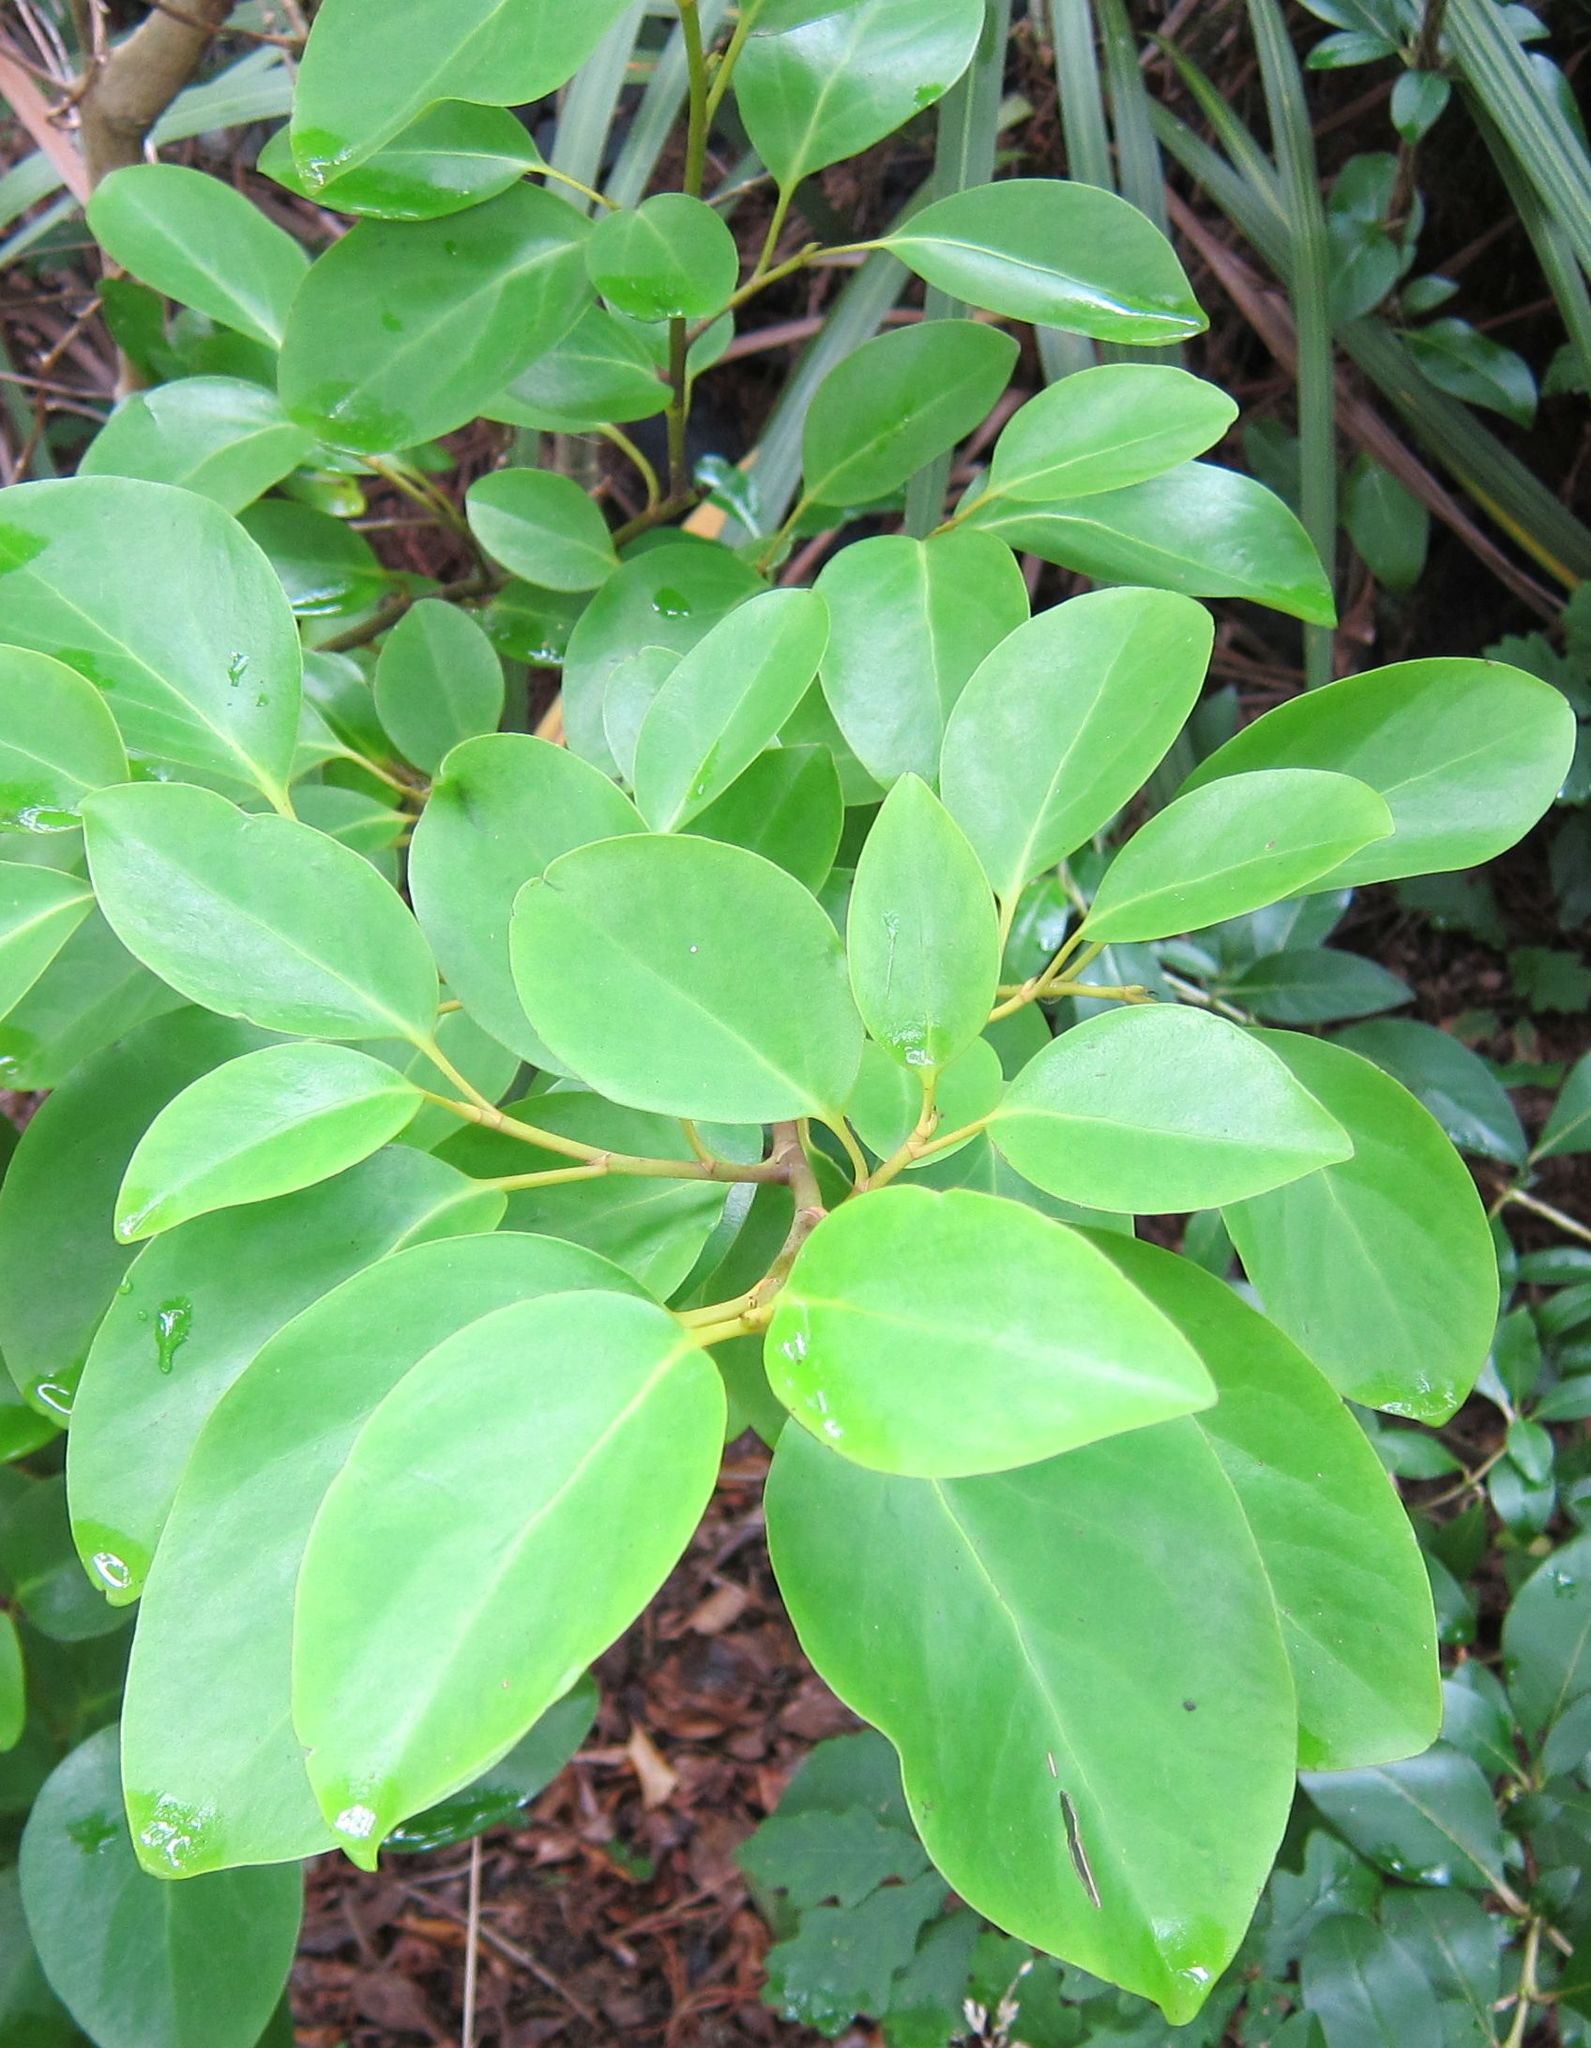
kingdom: Plantae
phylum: Tracheophyta
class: Magnoliopsida
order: Apiales
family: Griseliniaceae
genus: Griselinia
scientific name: Griselinia littoralis
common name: New zealand broadleaf
